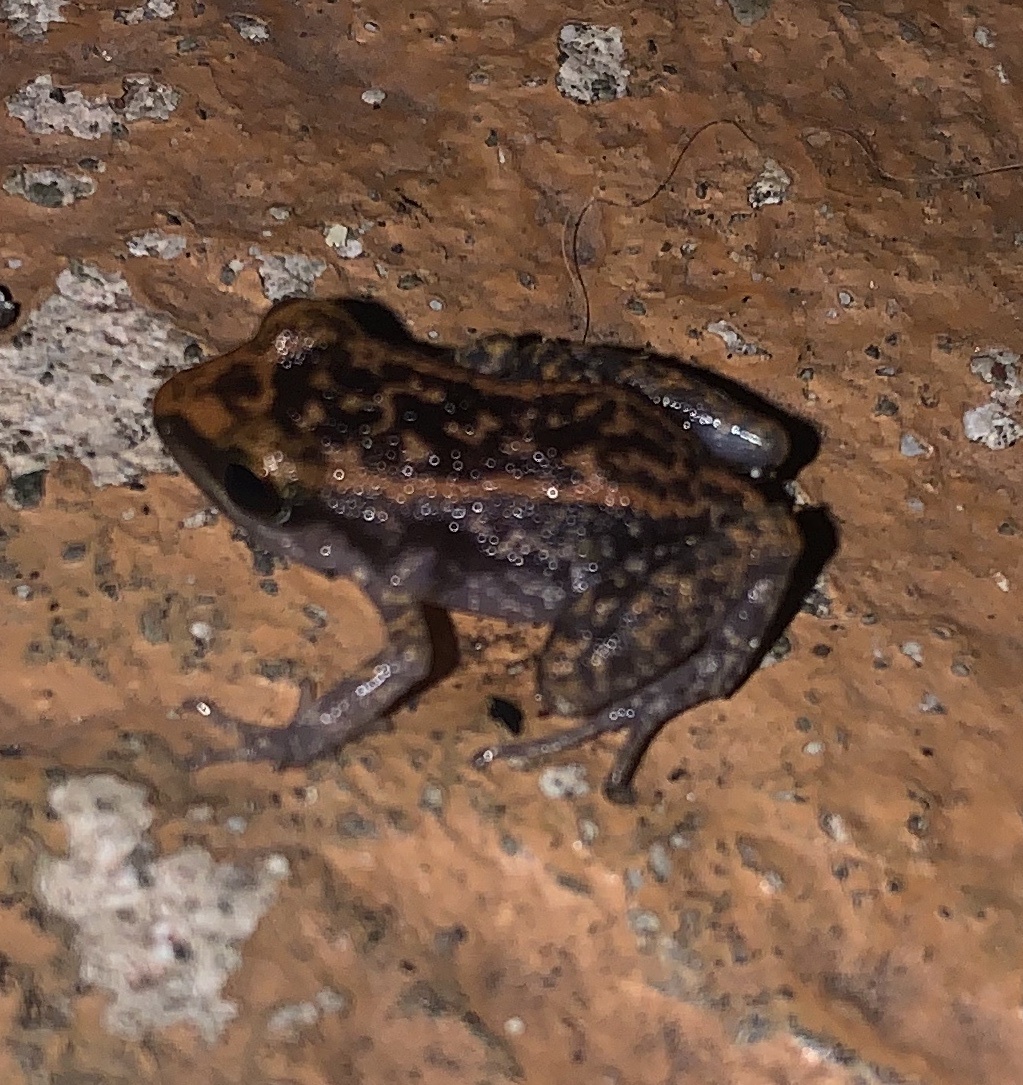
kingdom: Animalia
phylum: Chordata
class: Amphibia
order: Anura
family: Eleutherodactylidae
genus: Eleutherodactylus
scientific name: Eleutherodactylus lentus
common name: Virgin islands robber frog
